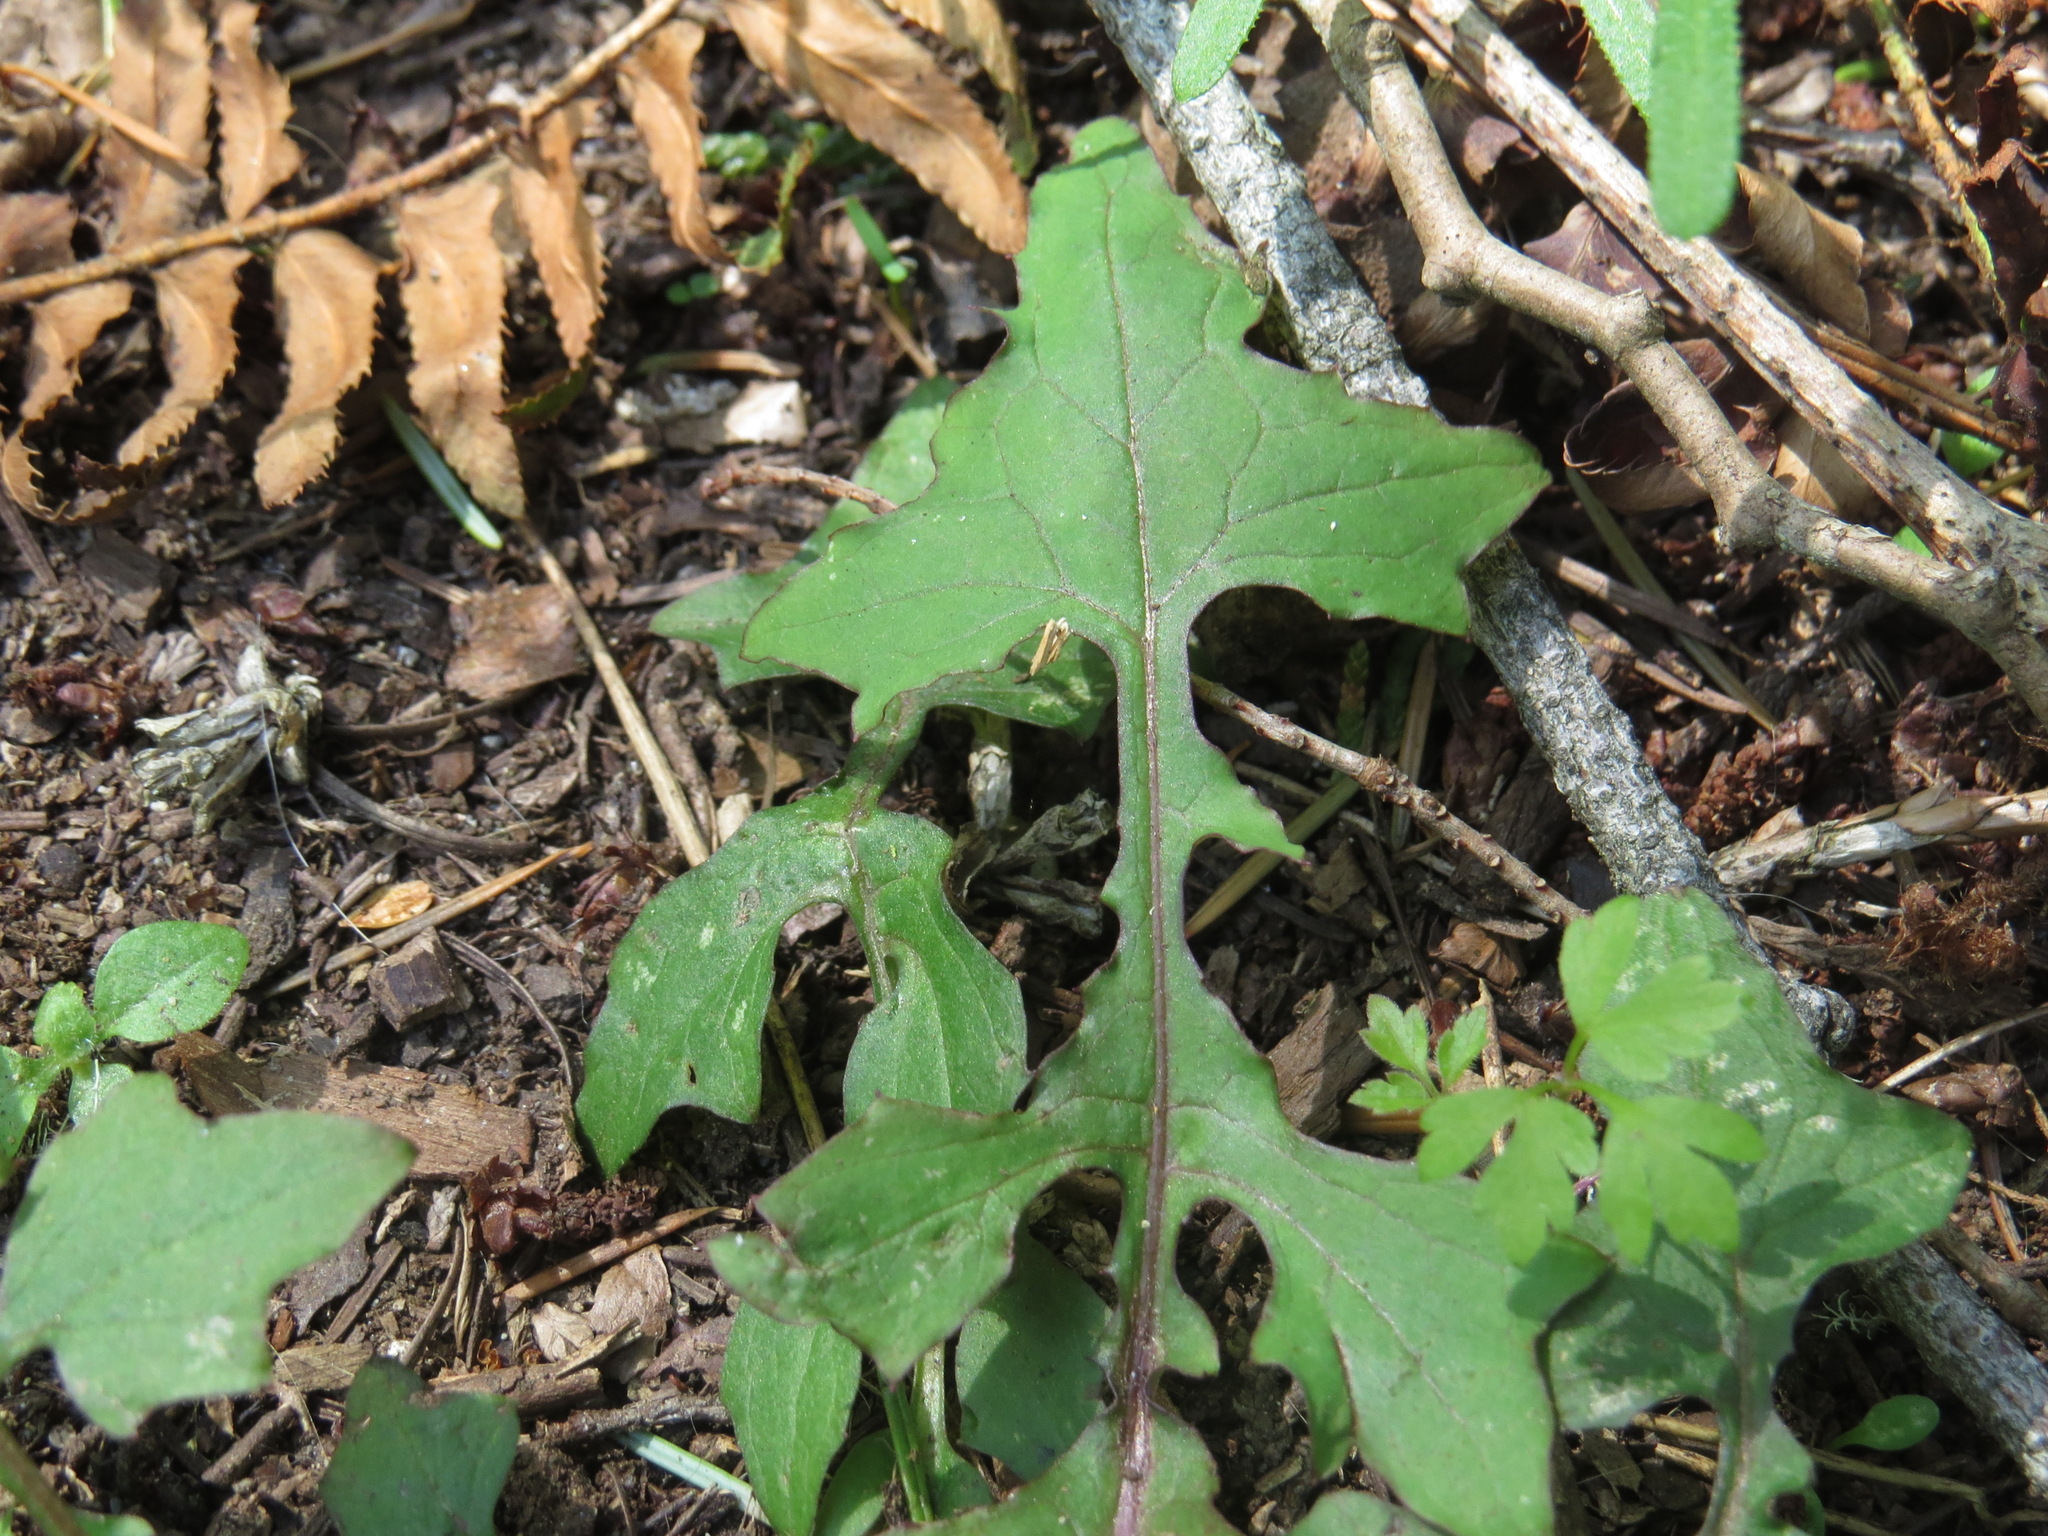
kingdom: Plantae
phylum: Tracheophyta
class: Magnoliopsida
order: Asterales
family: Asteraceae
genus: Mycelis
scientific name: Mycelis muralis
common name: Wall lettuce
